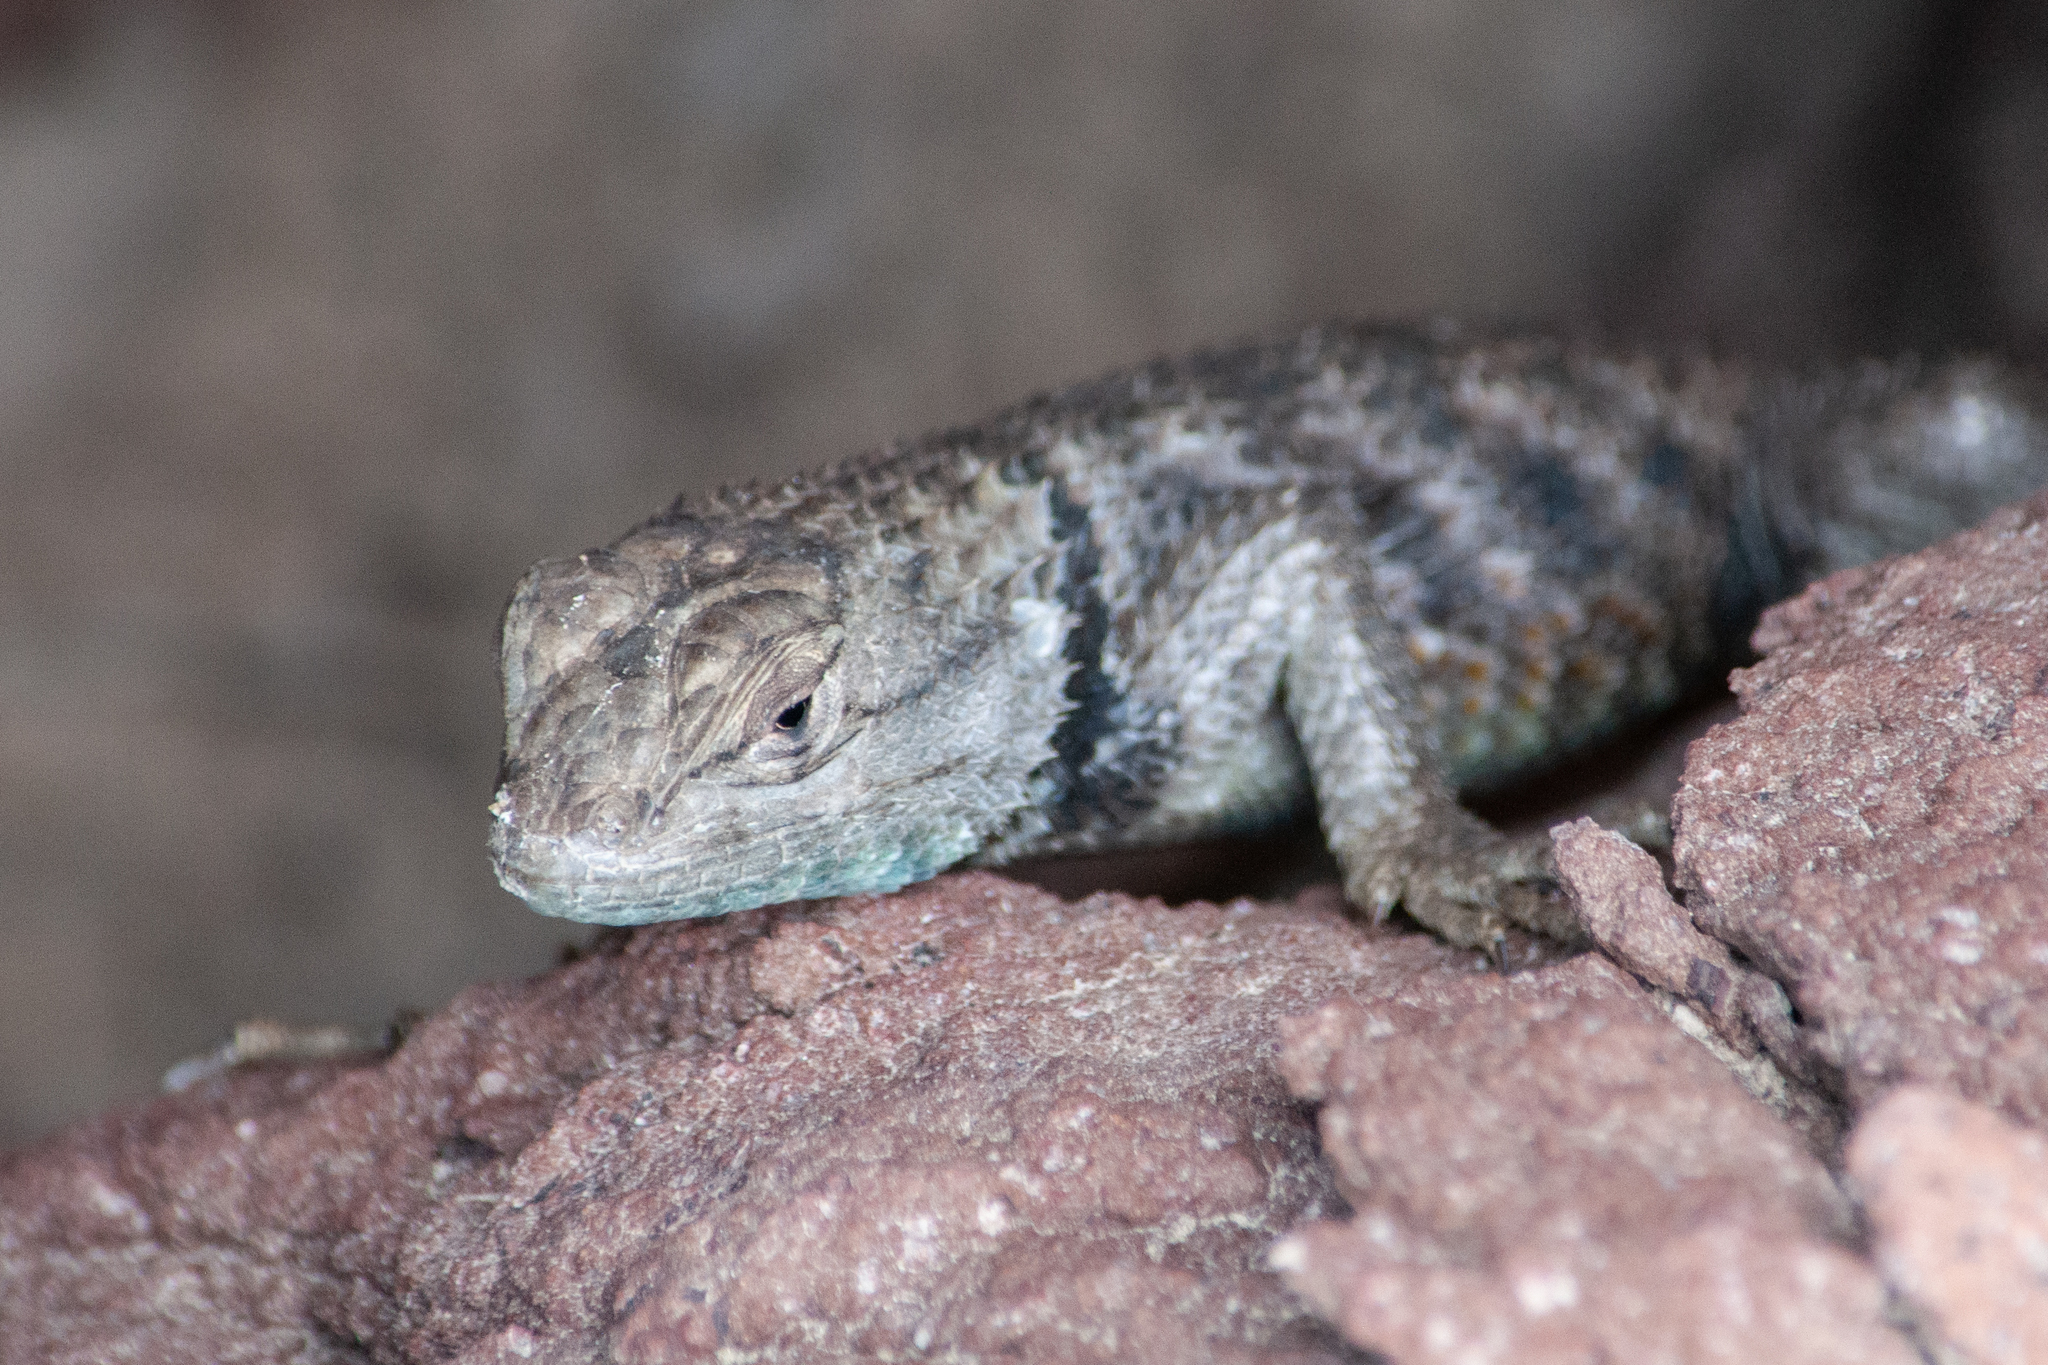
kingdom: Animalia
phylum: Chordata
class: Squamata
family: Phrynosomatidae
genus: Sceloporus
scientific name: Sceloporus uniformis
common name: Yellow-backed spiny lizard
